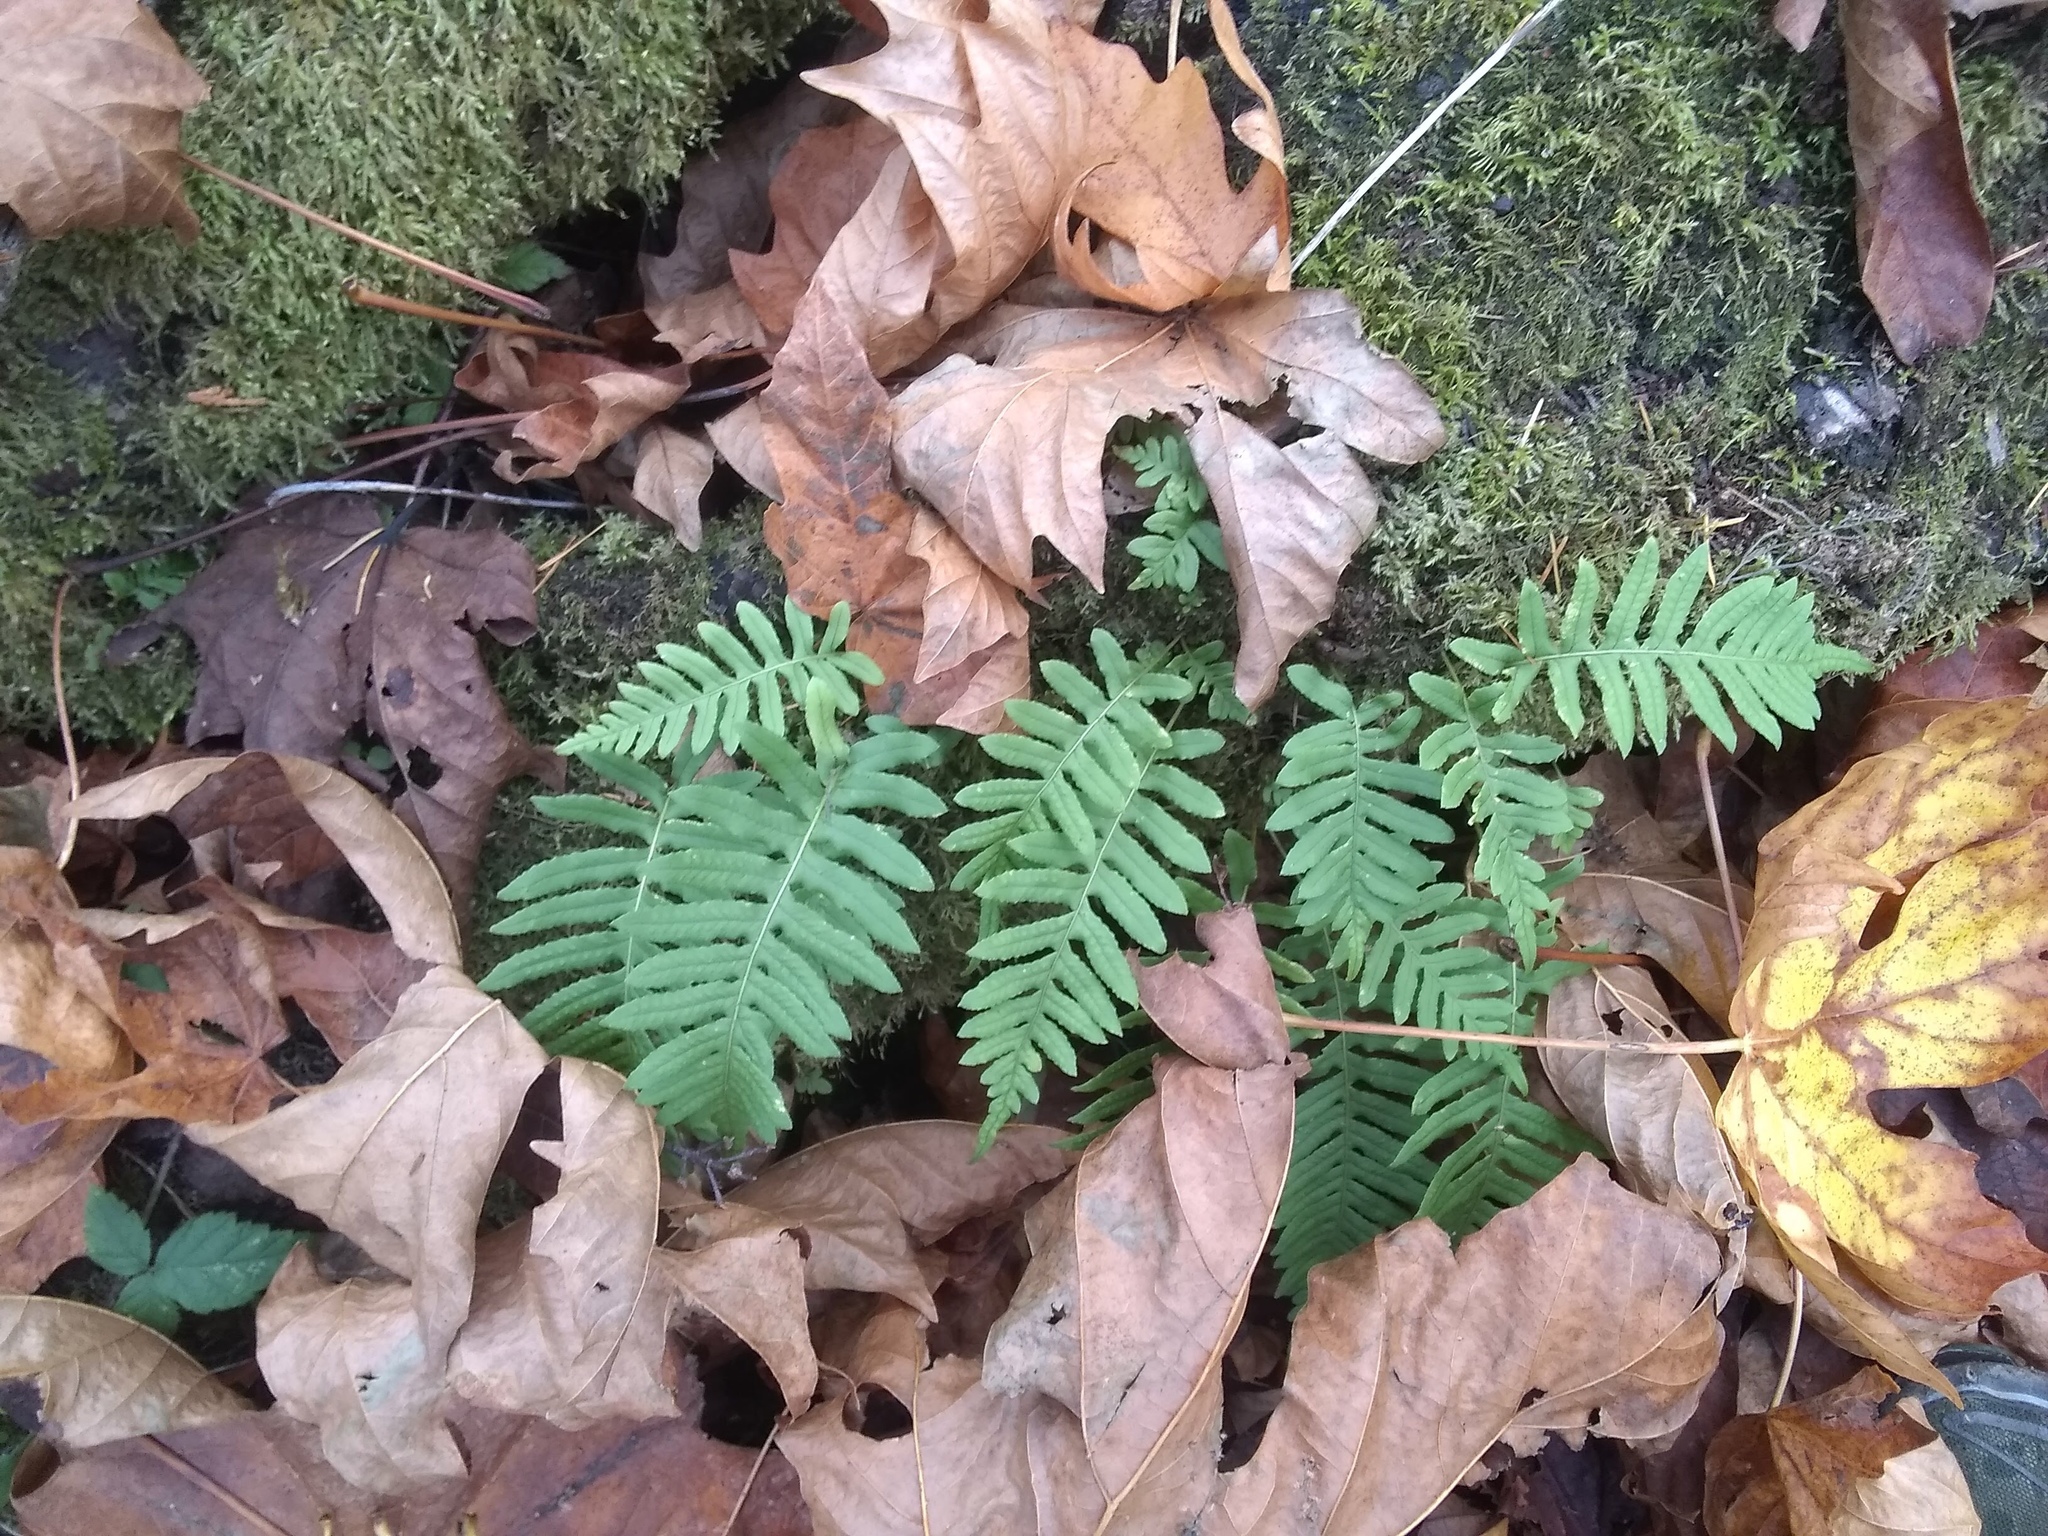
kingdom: Plantae
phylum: Tracheophyta
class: Polypodiopsida
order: Polypodiales
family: Polypodiaceae
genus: Polypodium
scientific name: Polypodium glycyrrhiza
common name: Licorice fern
